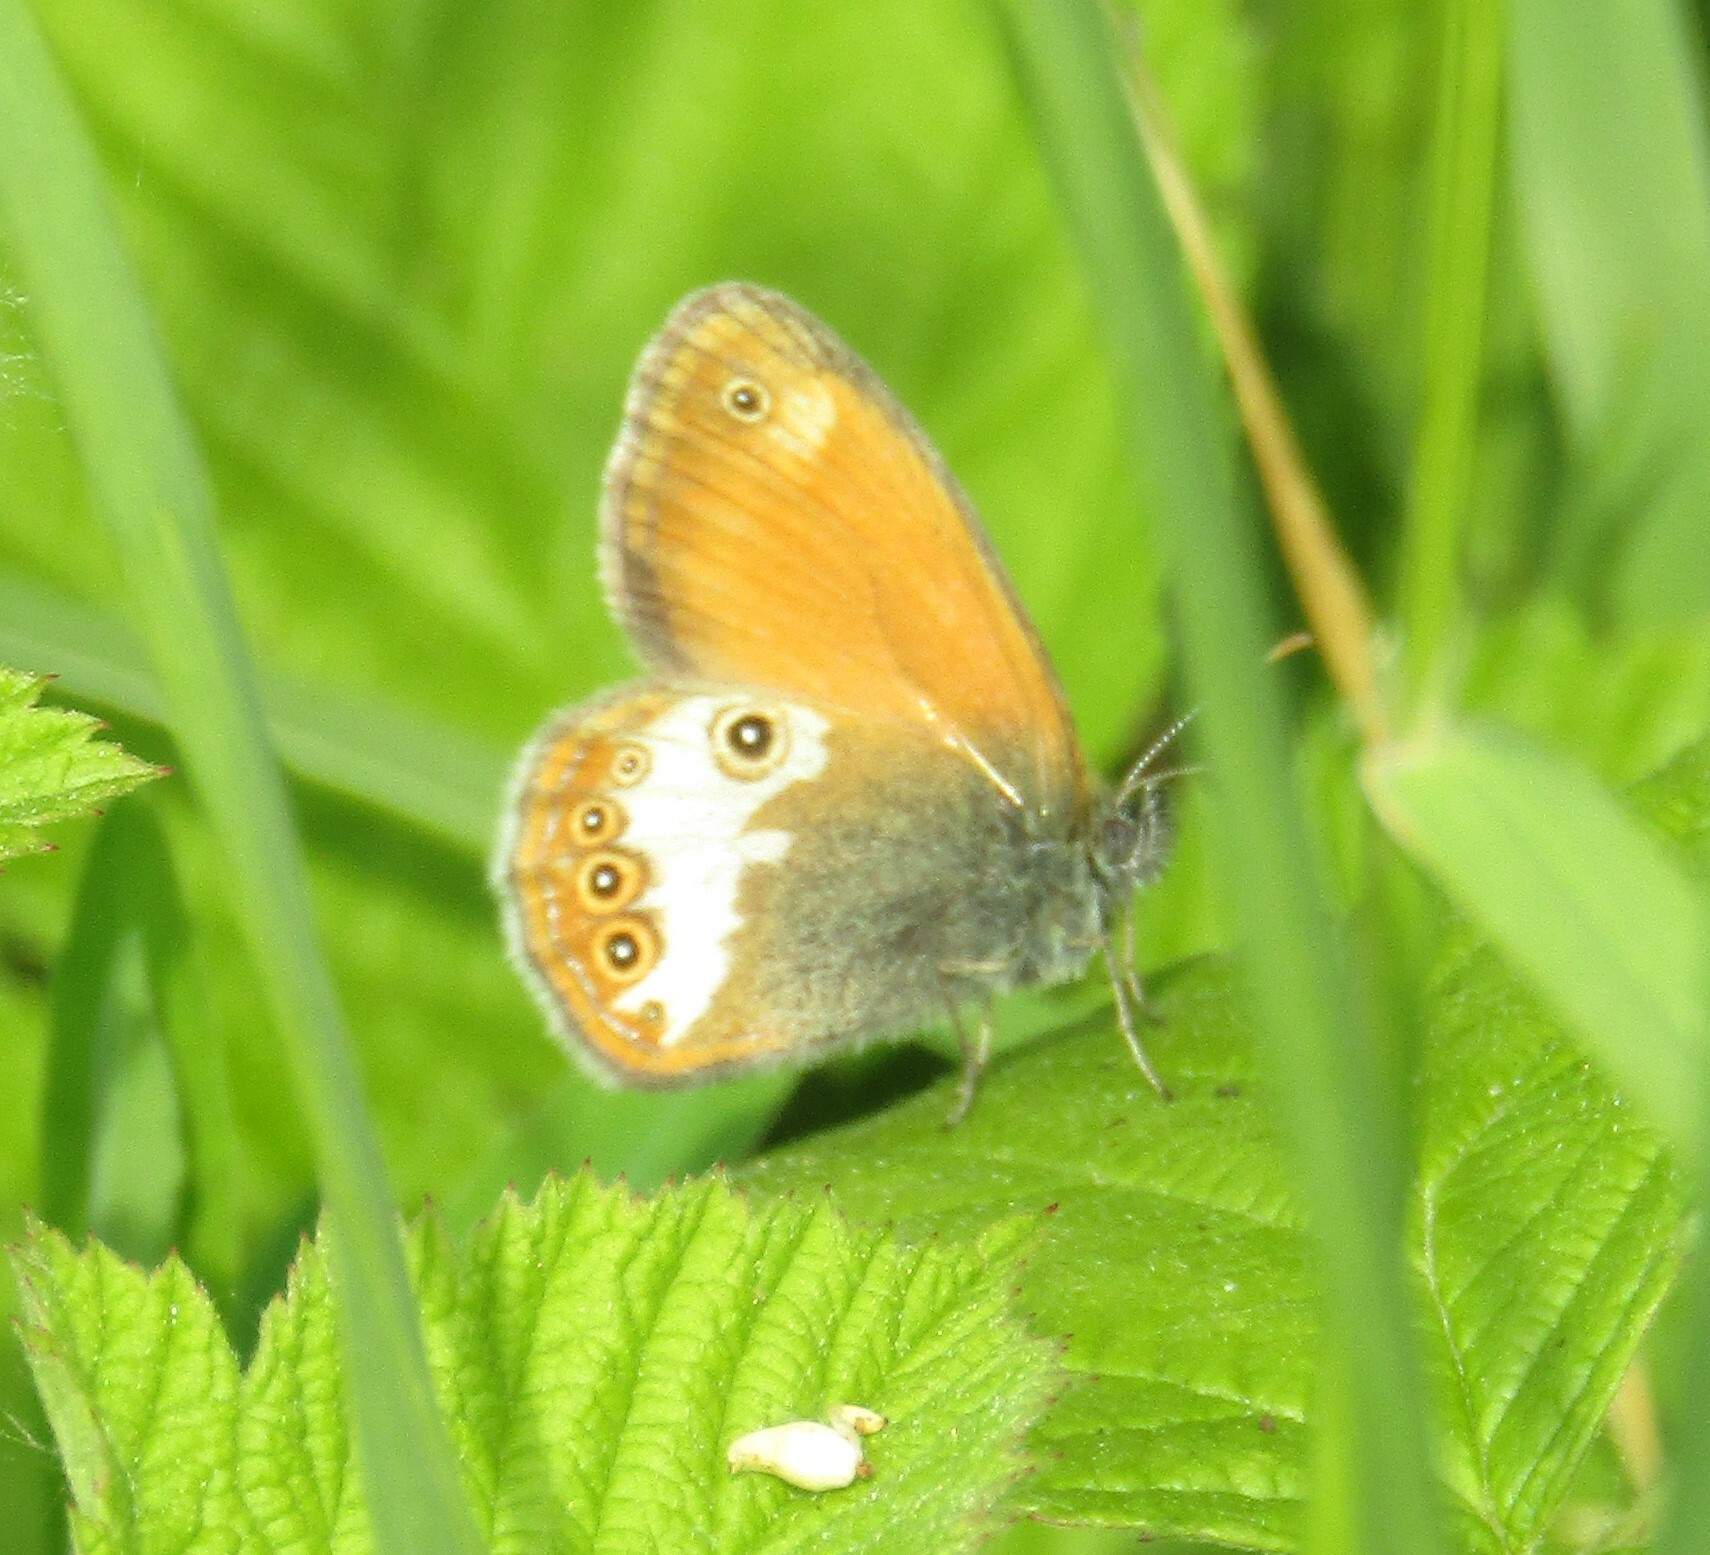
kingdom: Animalia
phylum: Arthropoda
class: Insecta
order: Lepidoptera
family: Nymphalidae
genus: Coenonympha
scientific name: Coenonympha arcania
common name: Pearly heath
